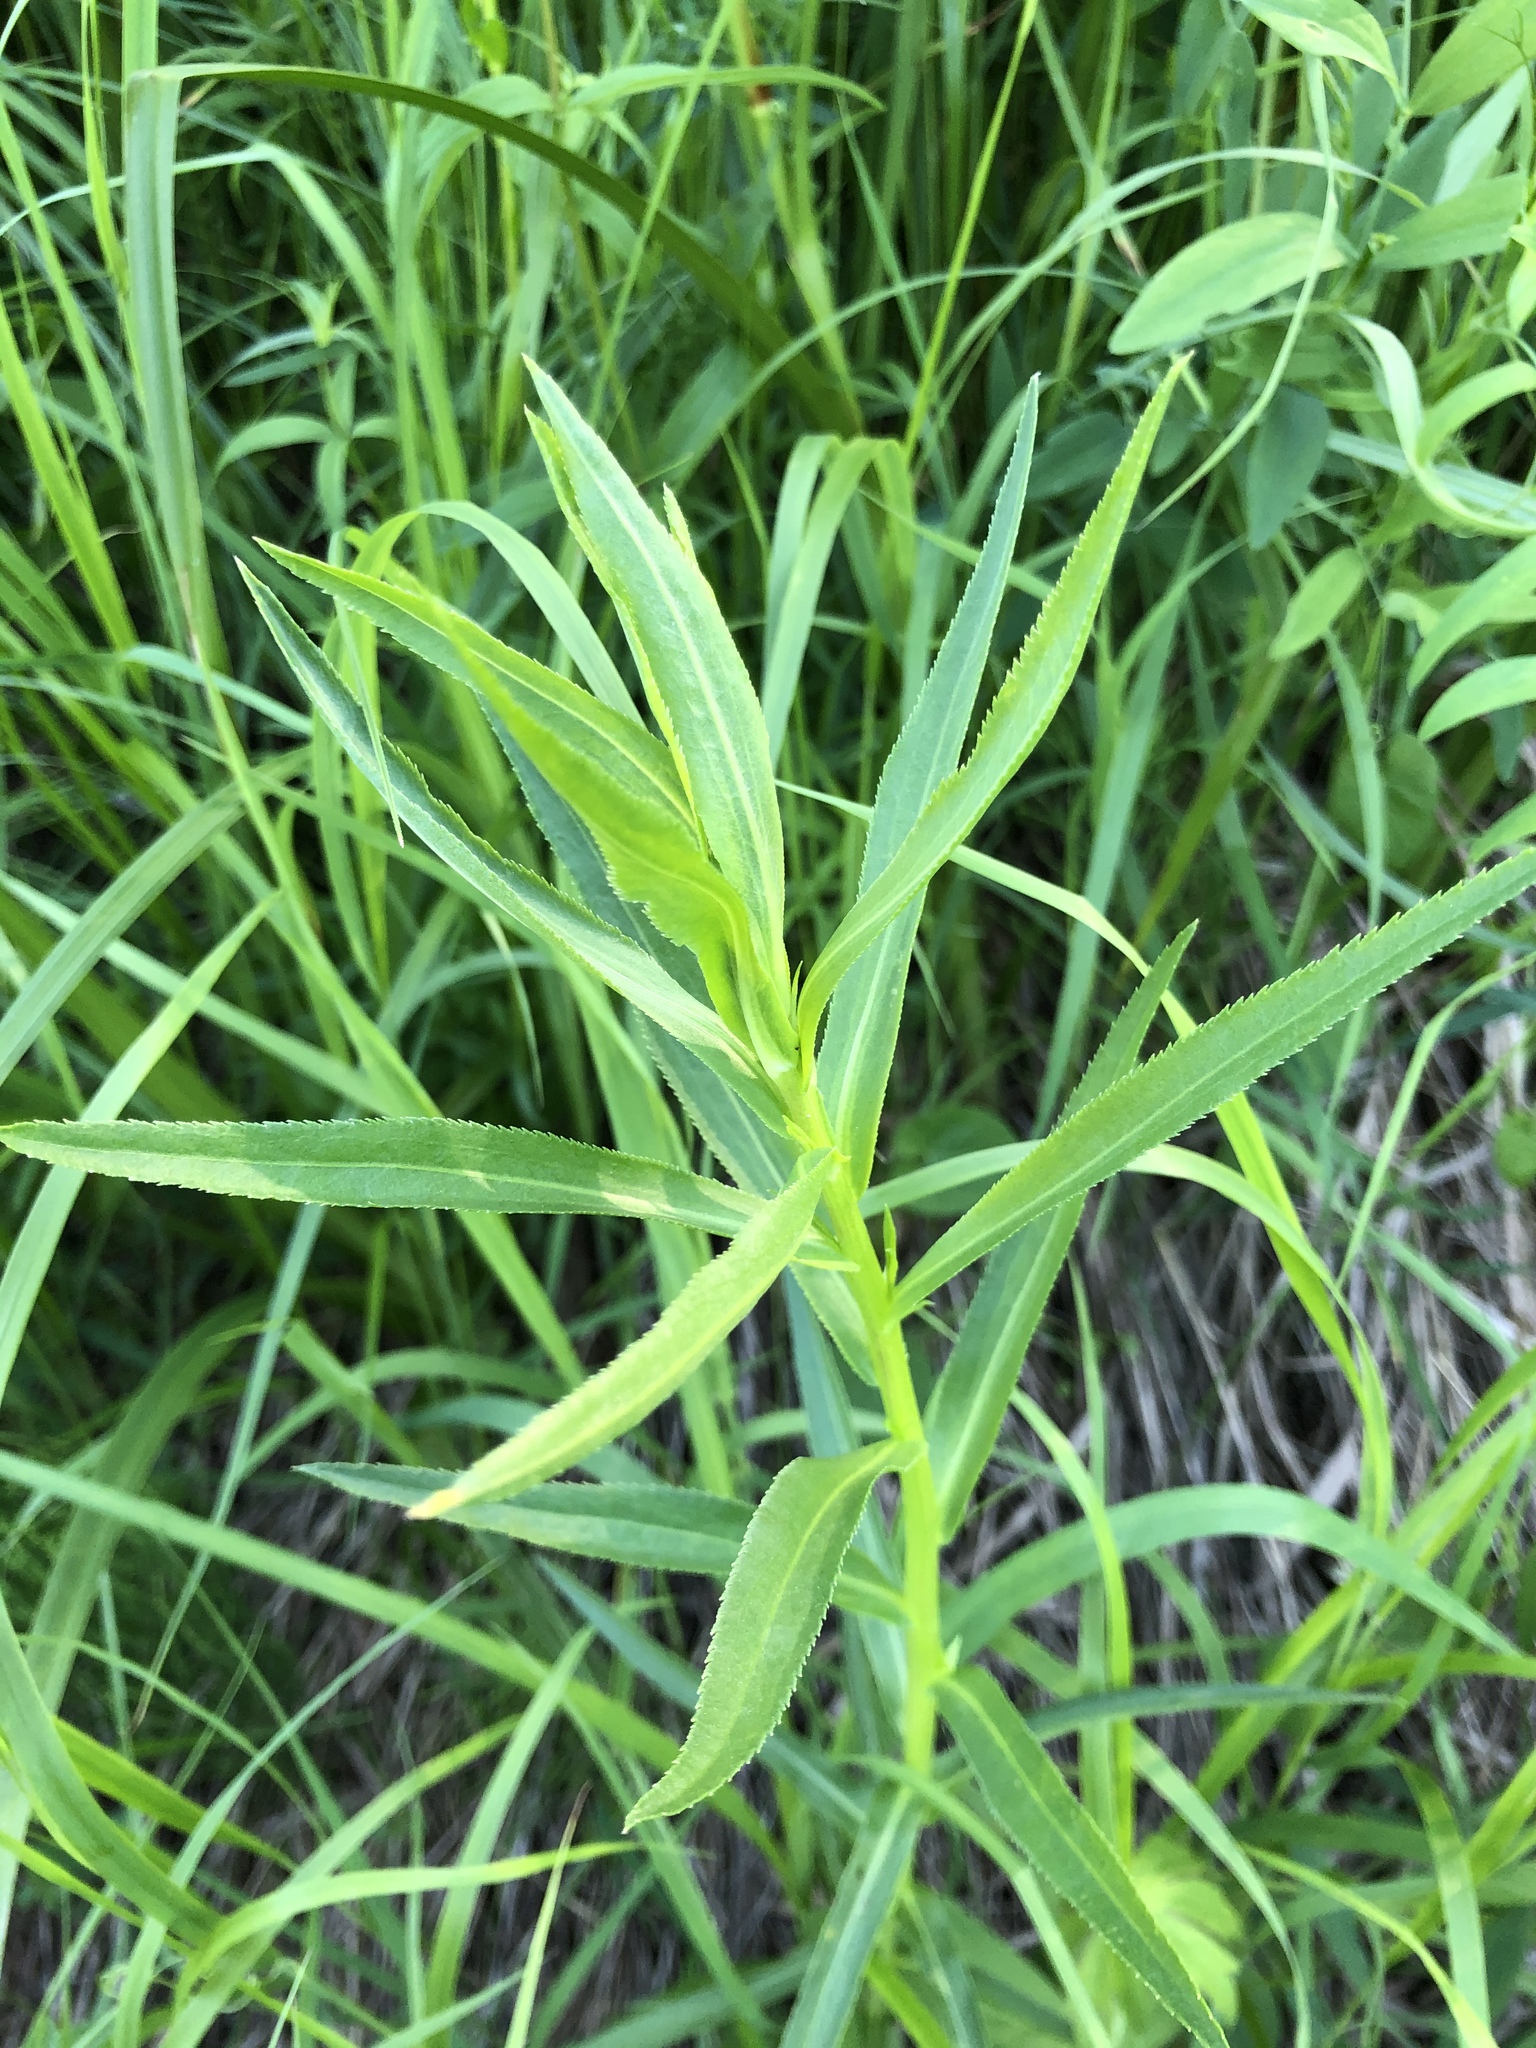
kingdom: Plantae
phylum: Tracheophyta
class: Magnoliopsida
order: Asterales
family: Asteraceae
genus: Achillea
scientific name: Achillea salicifolia
